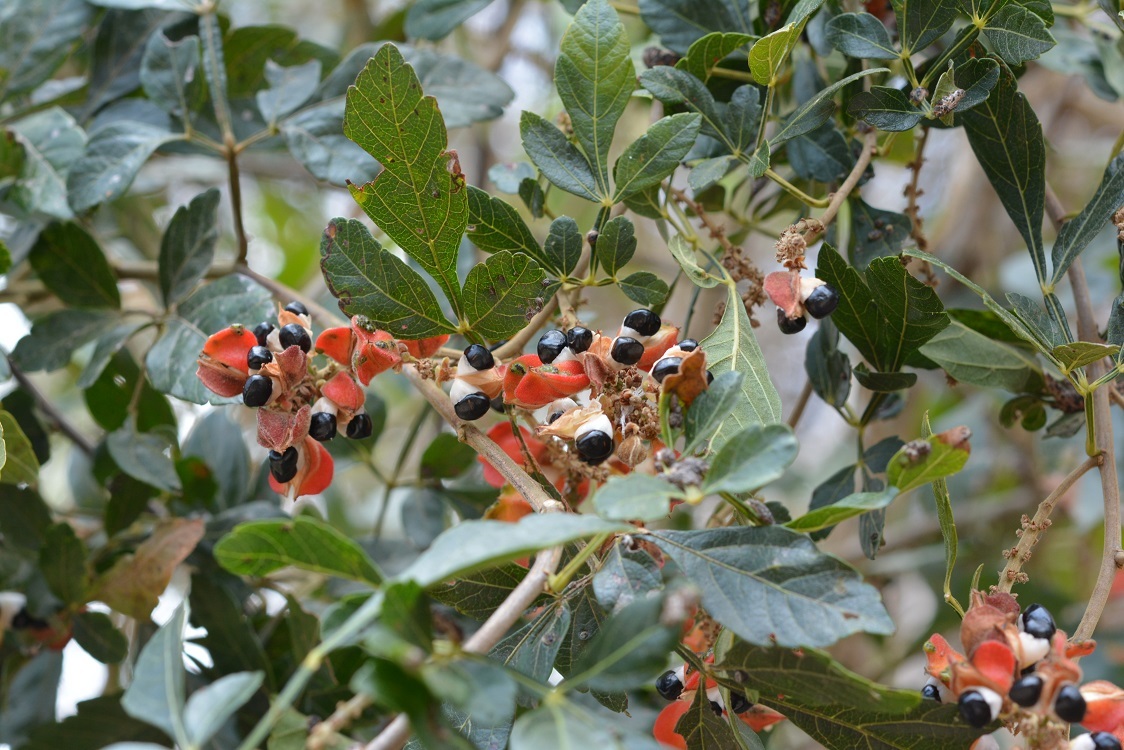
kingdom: Plantae
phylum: Tracheophyta
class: Magnoliopsida
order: Sapindales
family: Sapindaceae
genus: Paullinia
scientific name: Paullinia fuscescens
